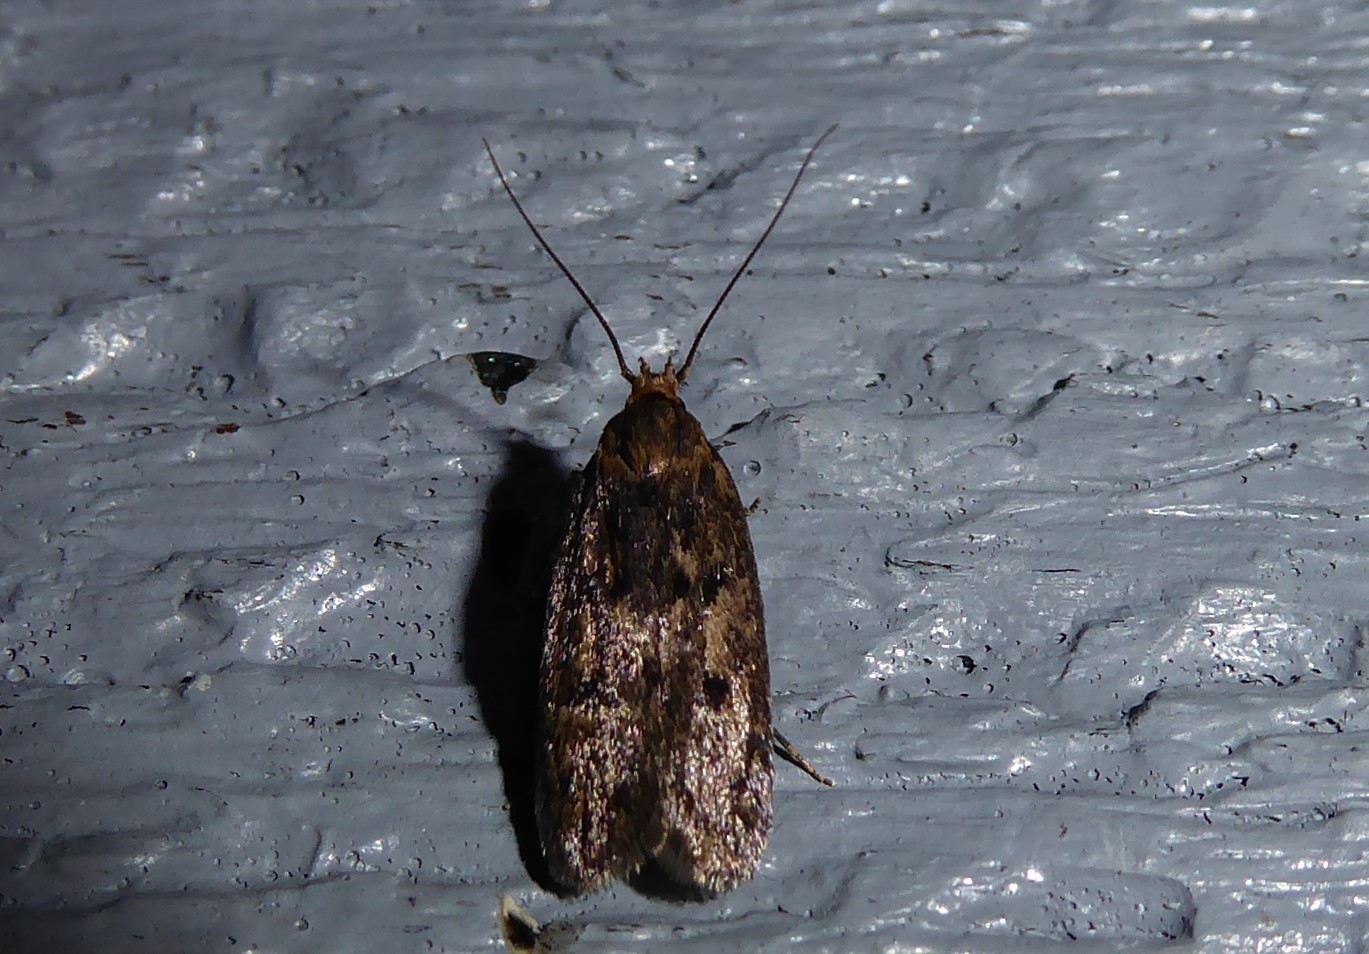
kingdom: Animalia
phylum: Arthropoda
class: Insecta
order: Lepidoptera
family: Oecophoridae
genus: Hofmannophila
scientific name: Hofmannophila pseudospretella
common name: Brown house moth
